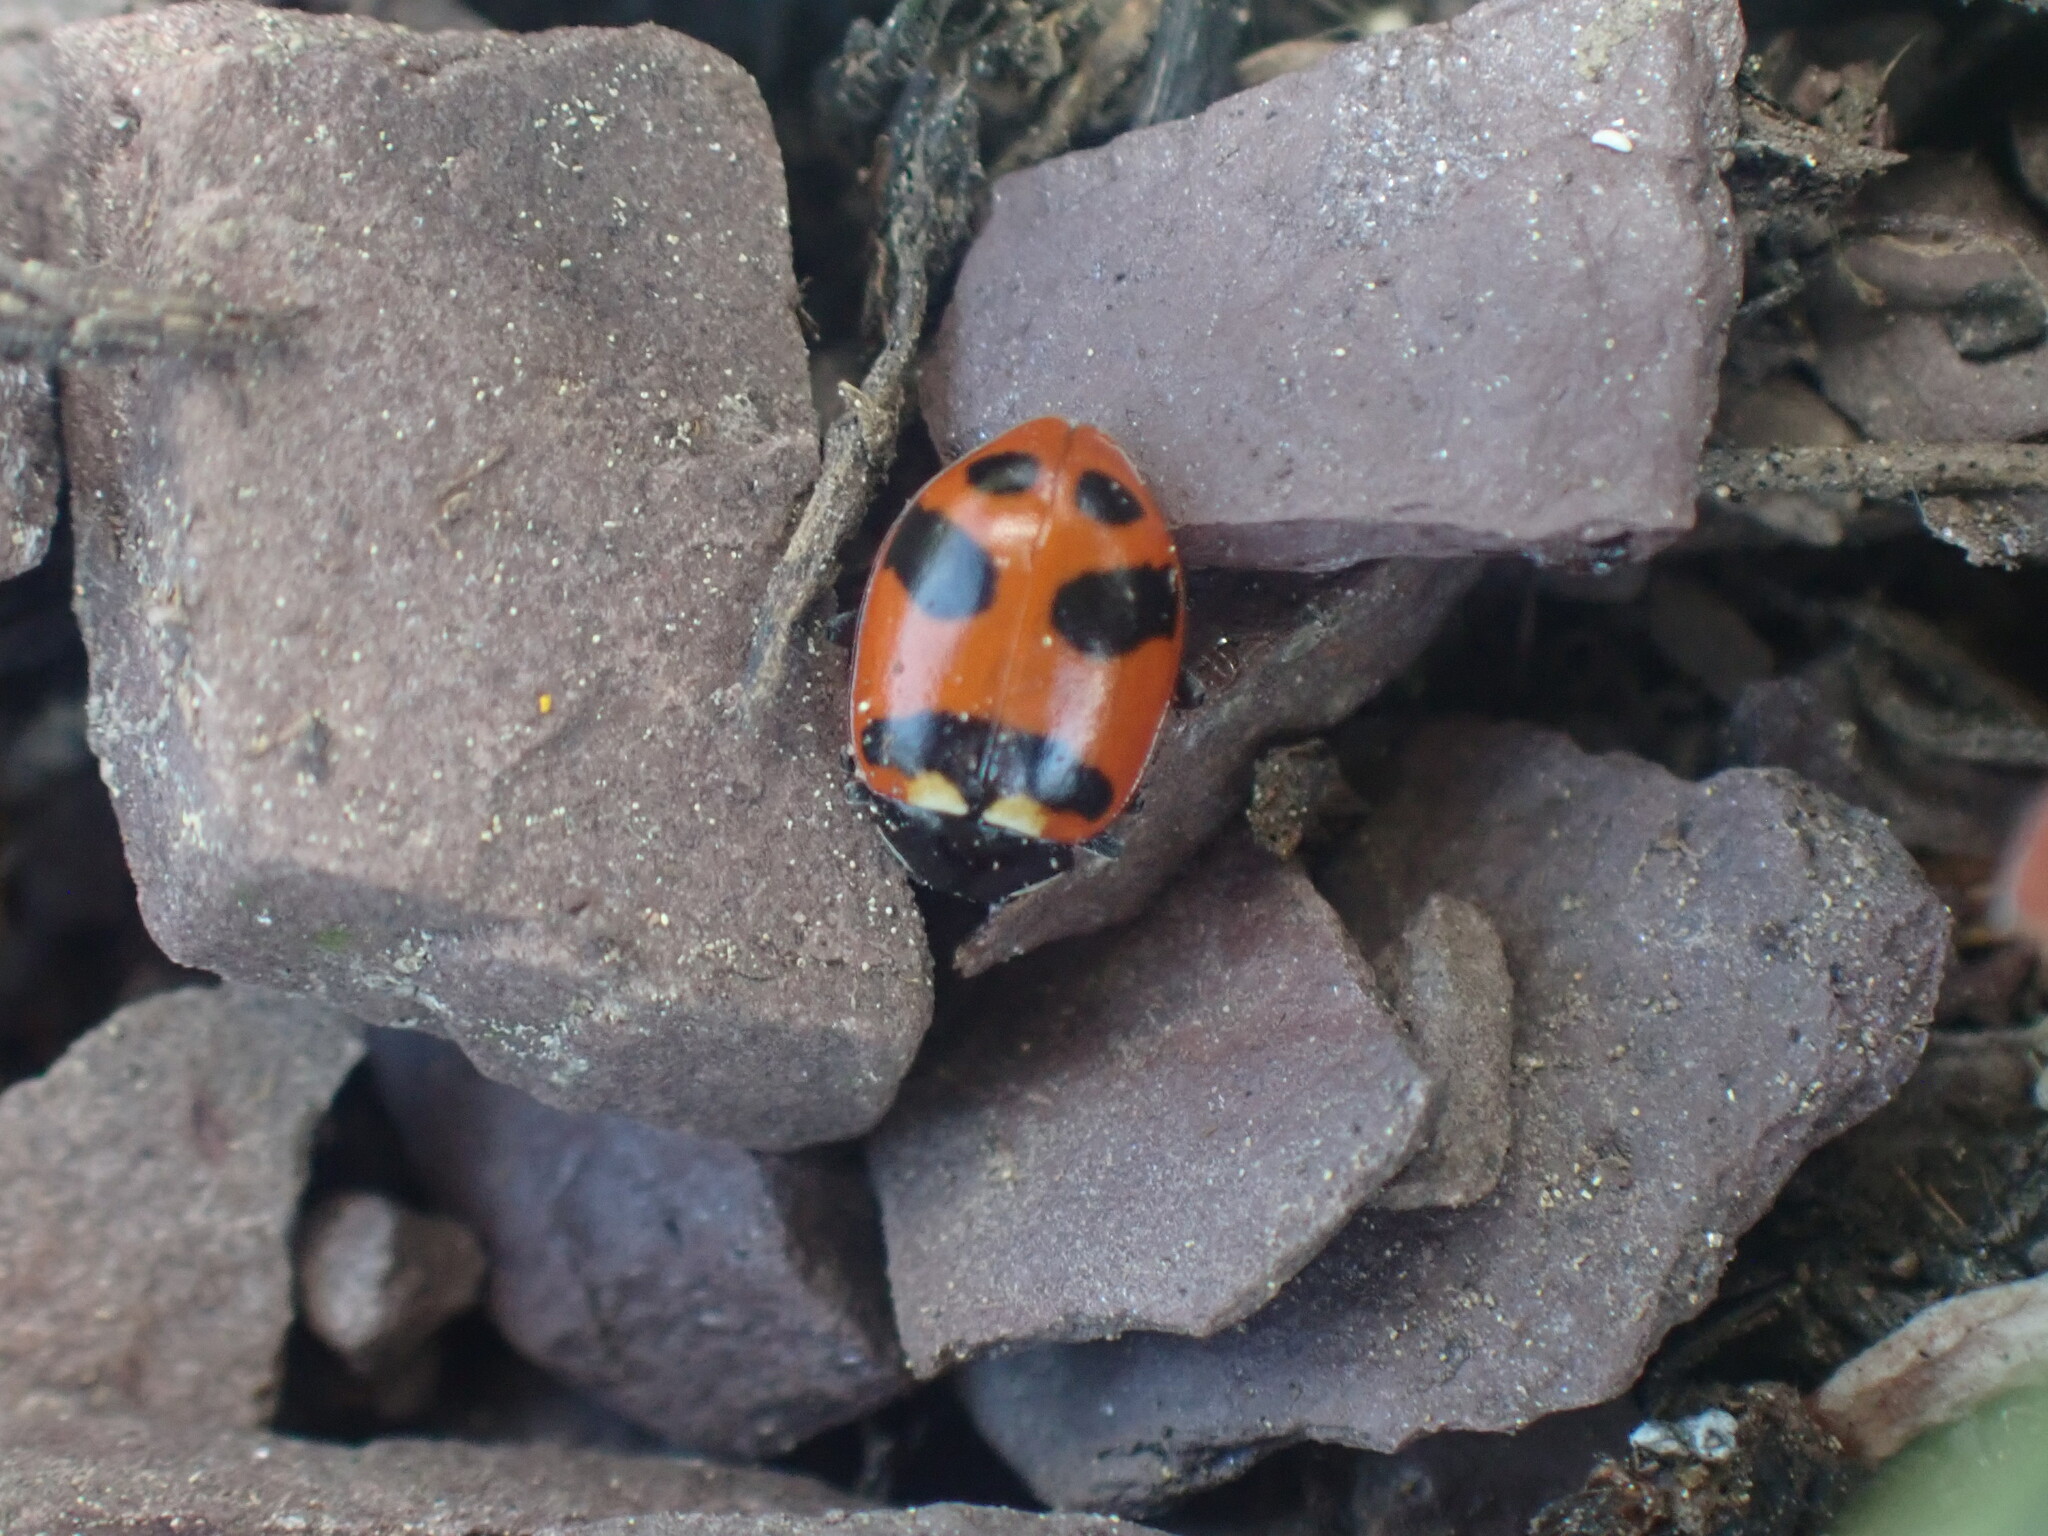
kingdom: Animalia
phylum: Arthropoda
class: Insecta
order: Coleoptera
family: Coccinellidae
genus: Hippodamia
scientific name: Hippodamia oregonensis
